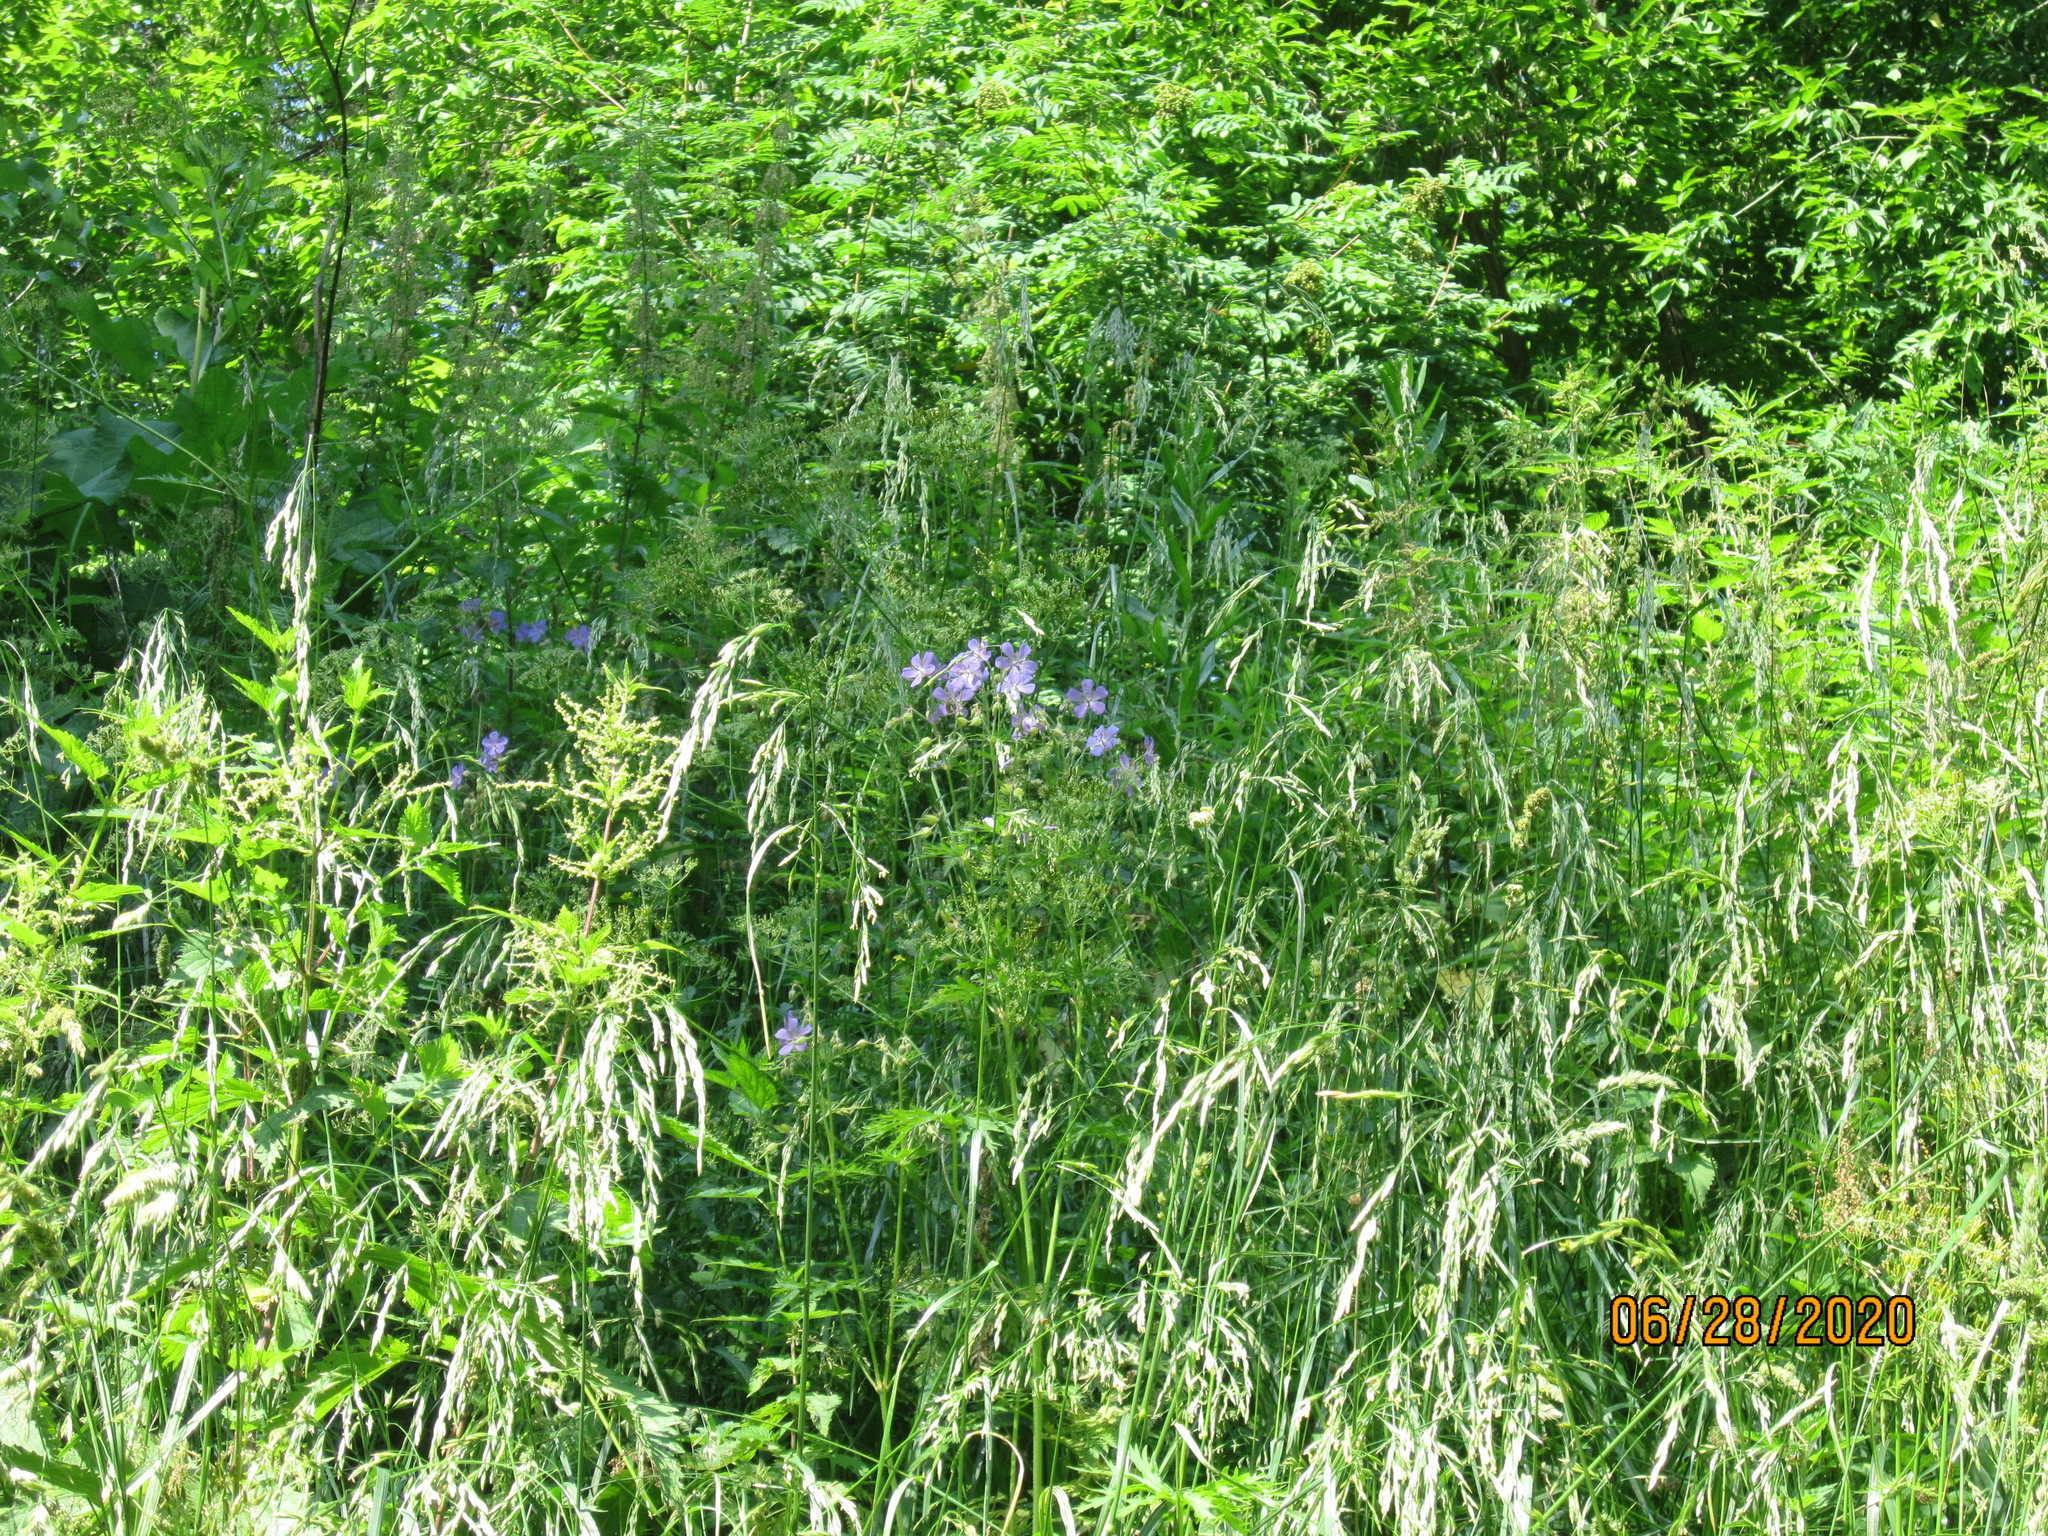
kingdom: Plantae
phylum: Tracheophyta
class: Magnoliopsida
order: Geraniales
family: Geraniaceae
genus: Geranium
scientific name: Geranium pratense
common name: Meadow crane's-bill
